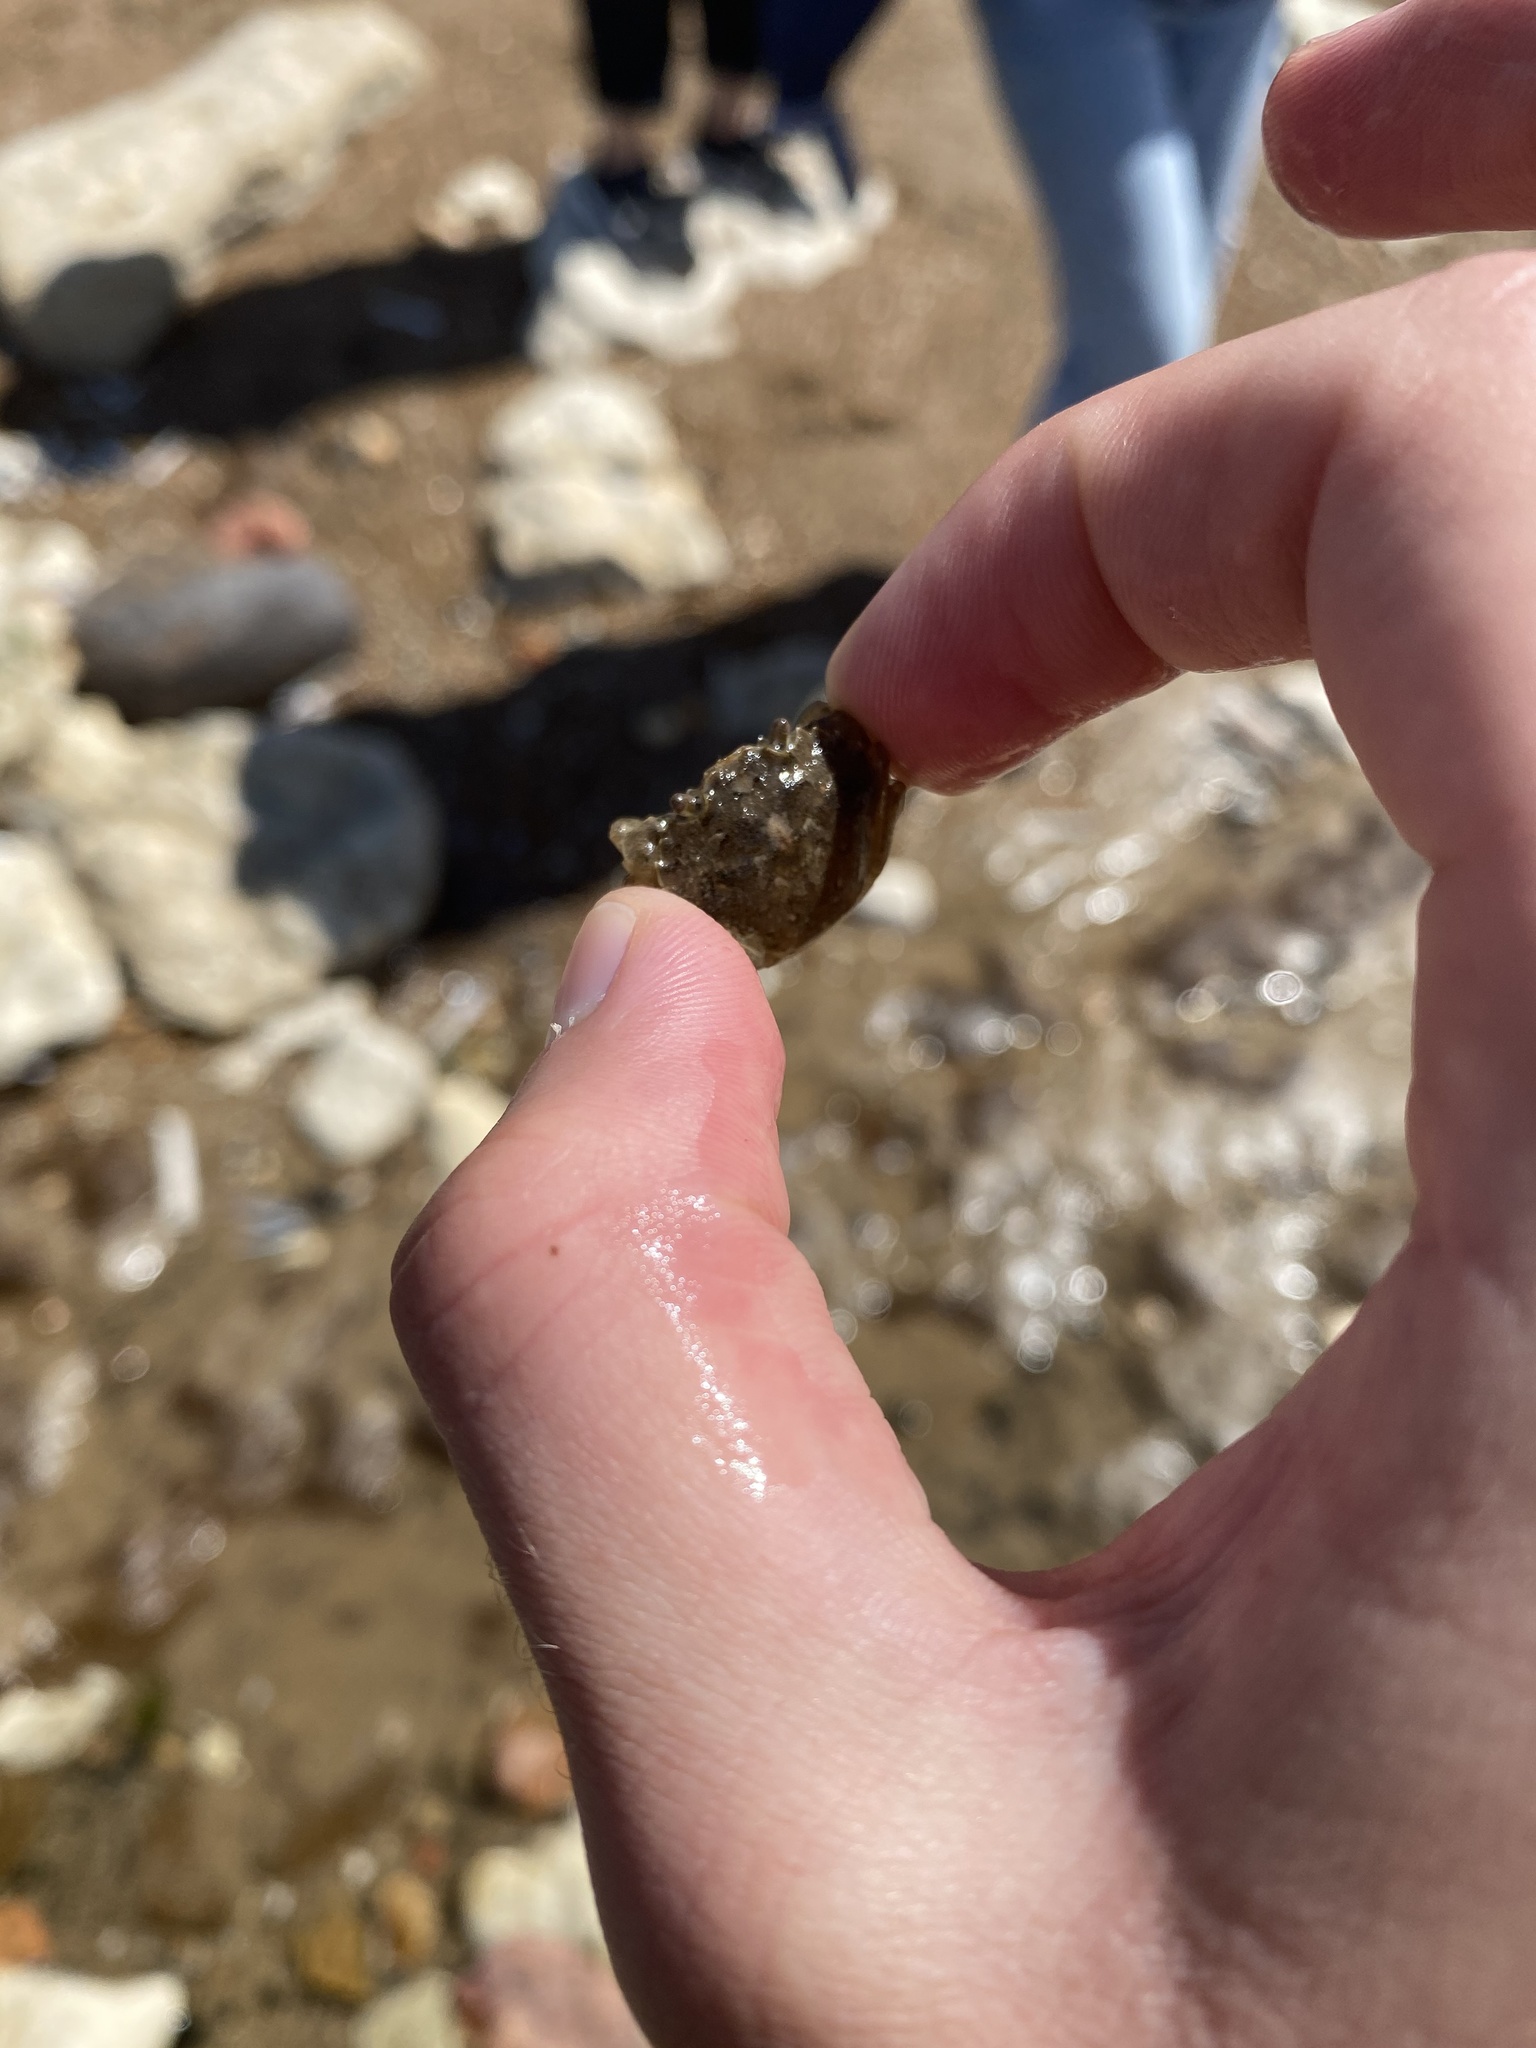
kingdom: Animalia
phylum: Arthropoda
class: Malacostraca
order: Decapoda
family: Carcinidae
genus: Carcinus
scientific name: Carcinus maenas
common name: European green crab
